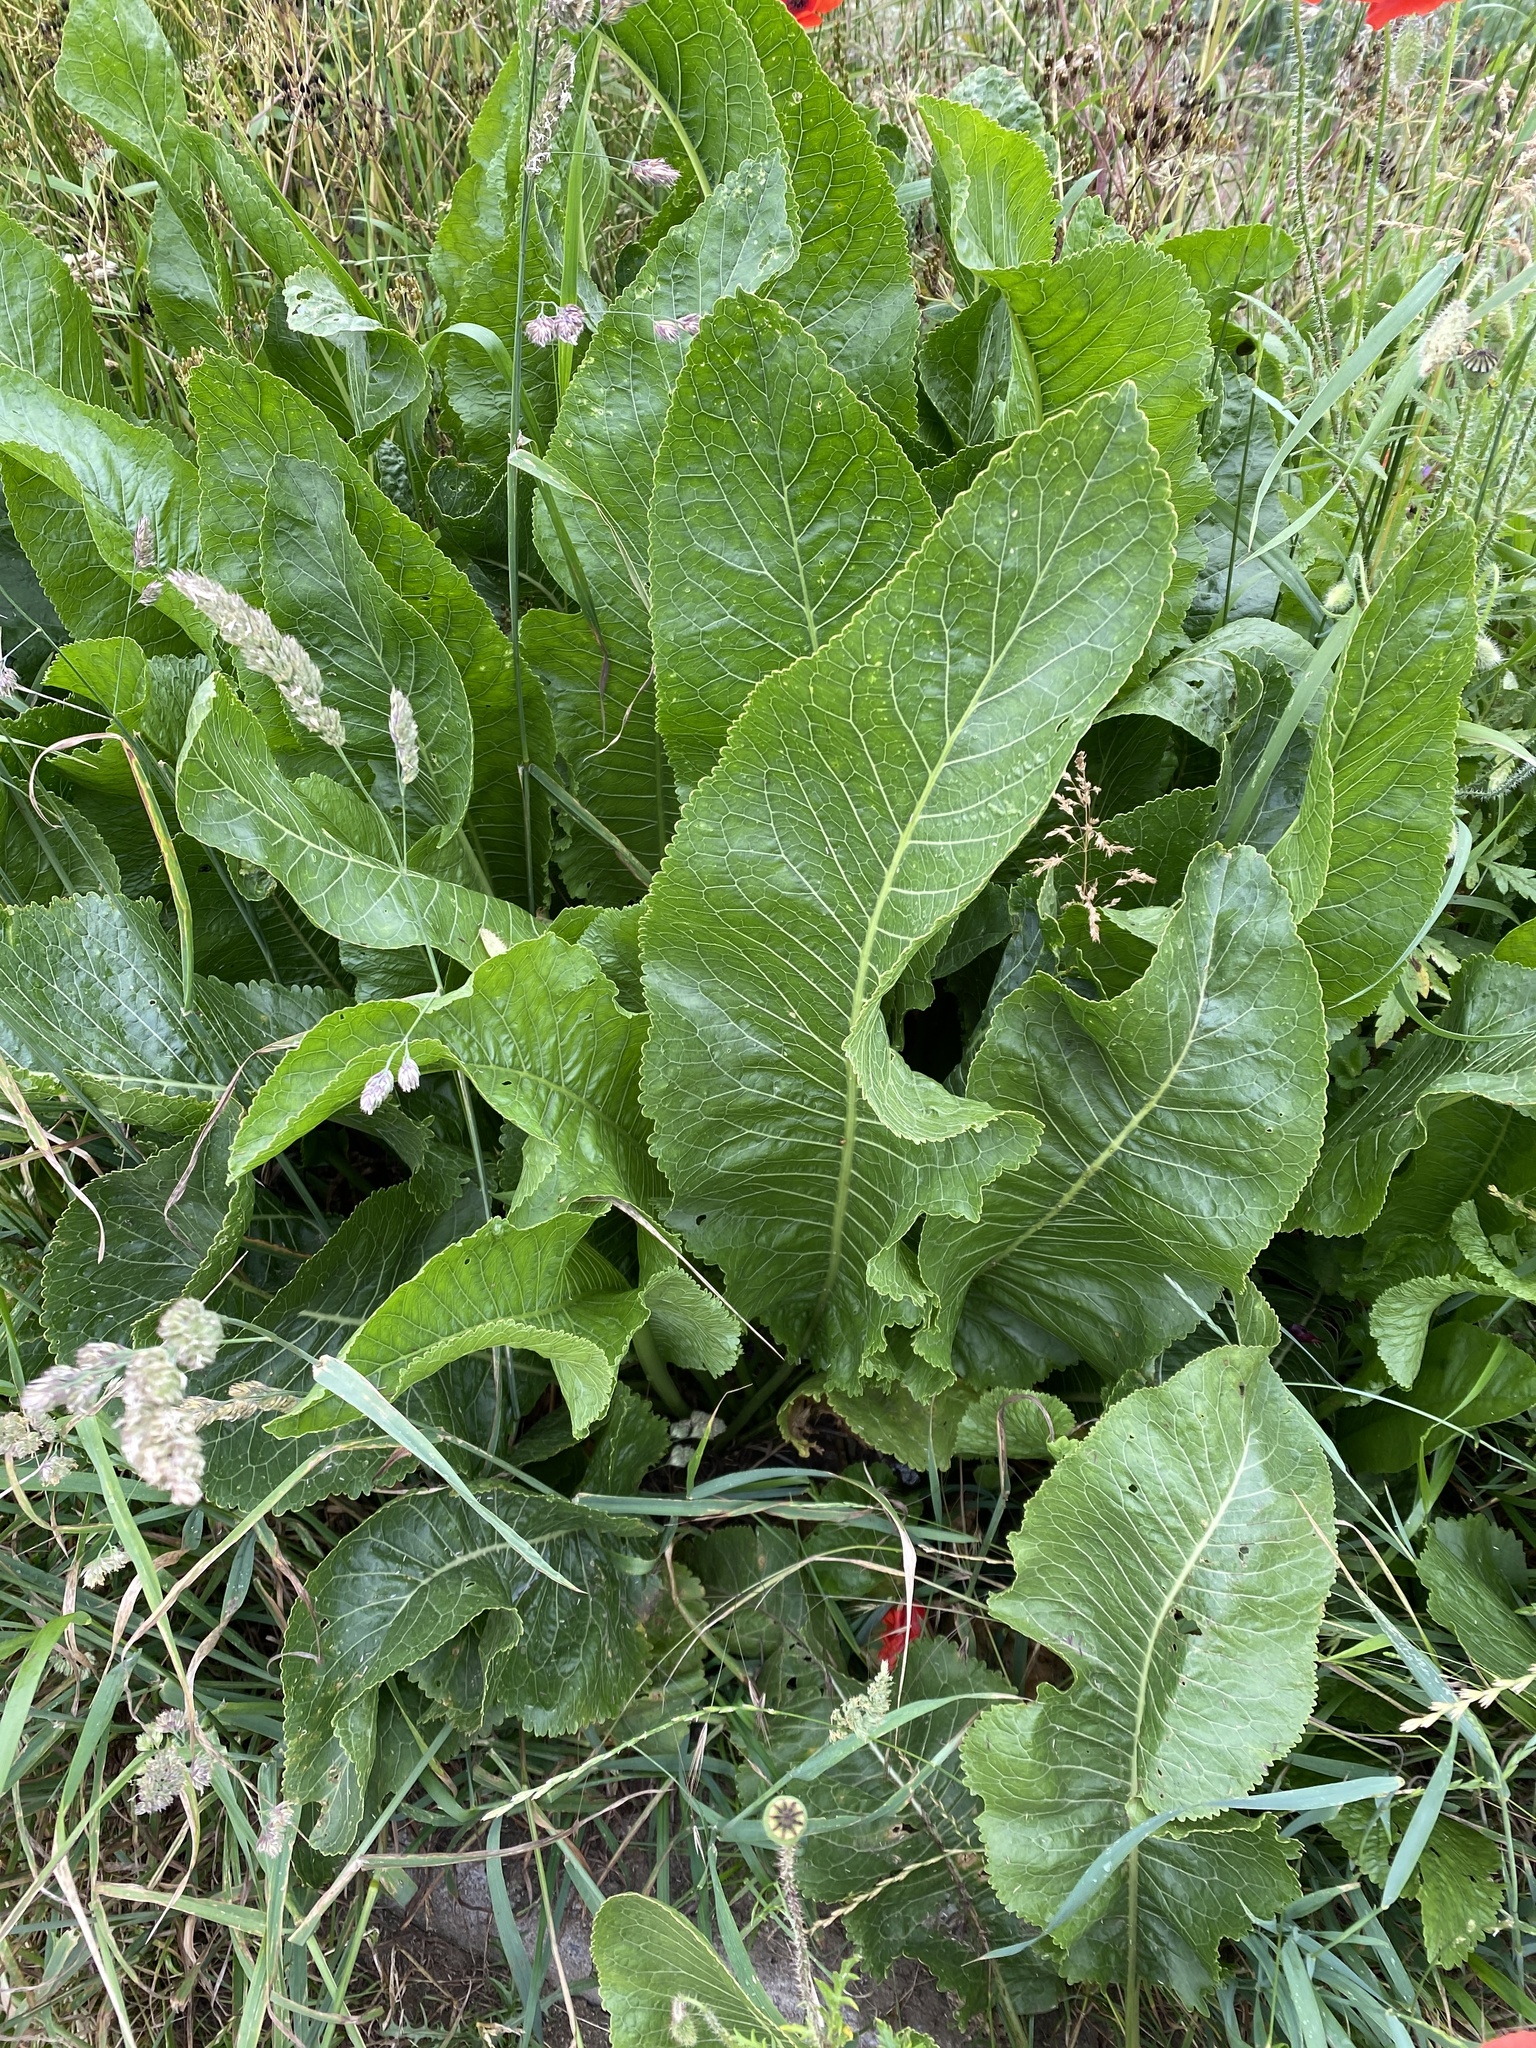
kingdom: Plantae
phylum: Tracheophyta
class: Magnoliopsida
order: Brassicales
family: Brassicaceae
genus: Armoracia
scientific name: Armoracia rusticana
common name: Horseradish
